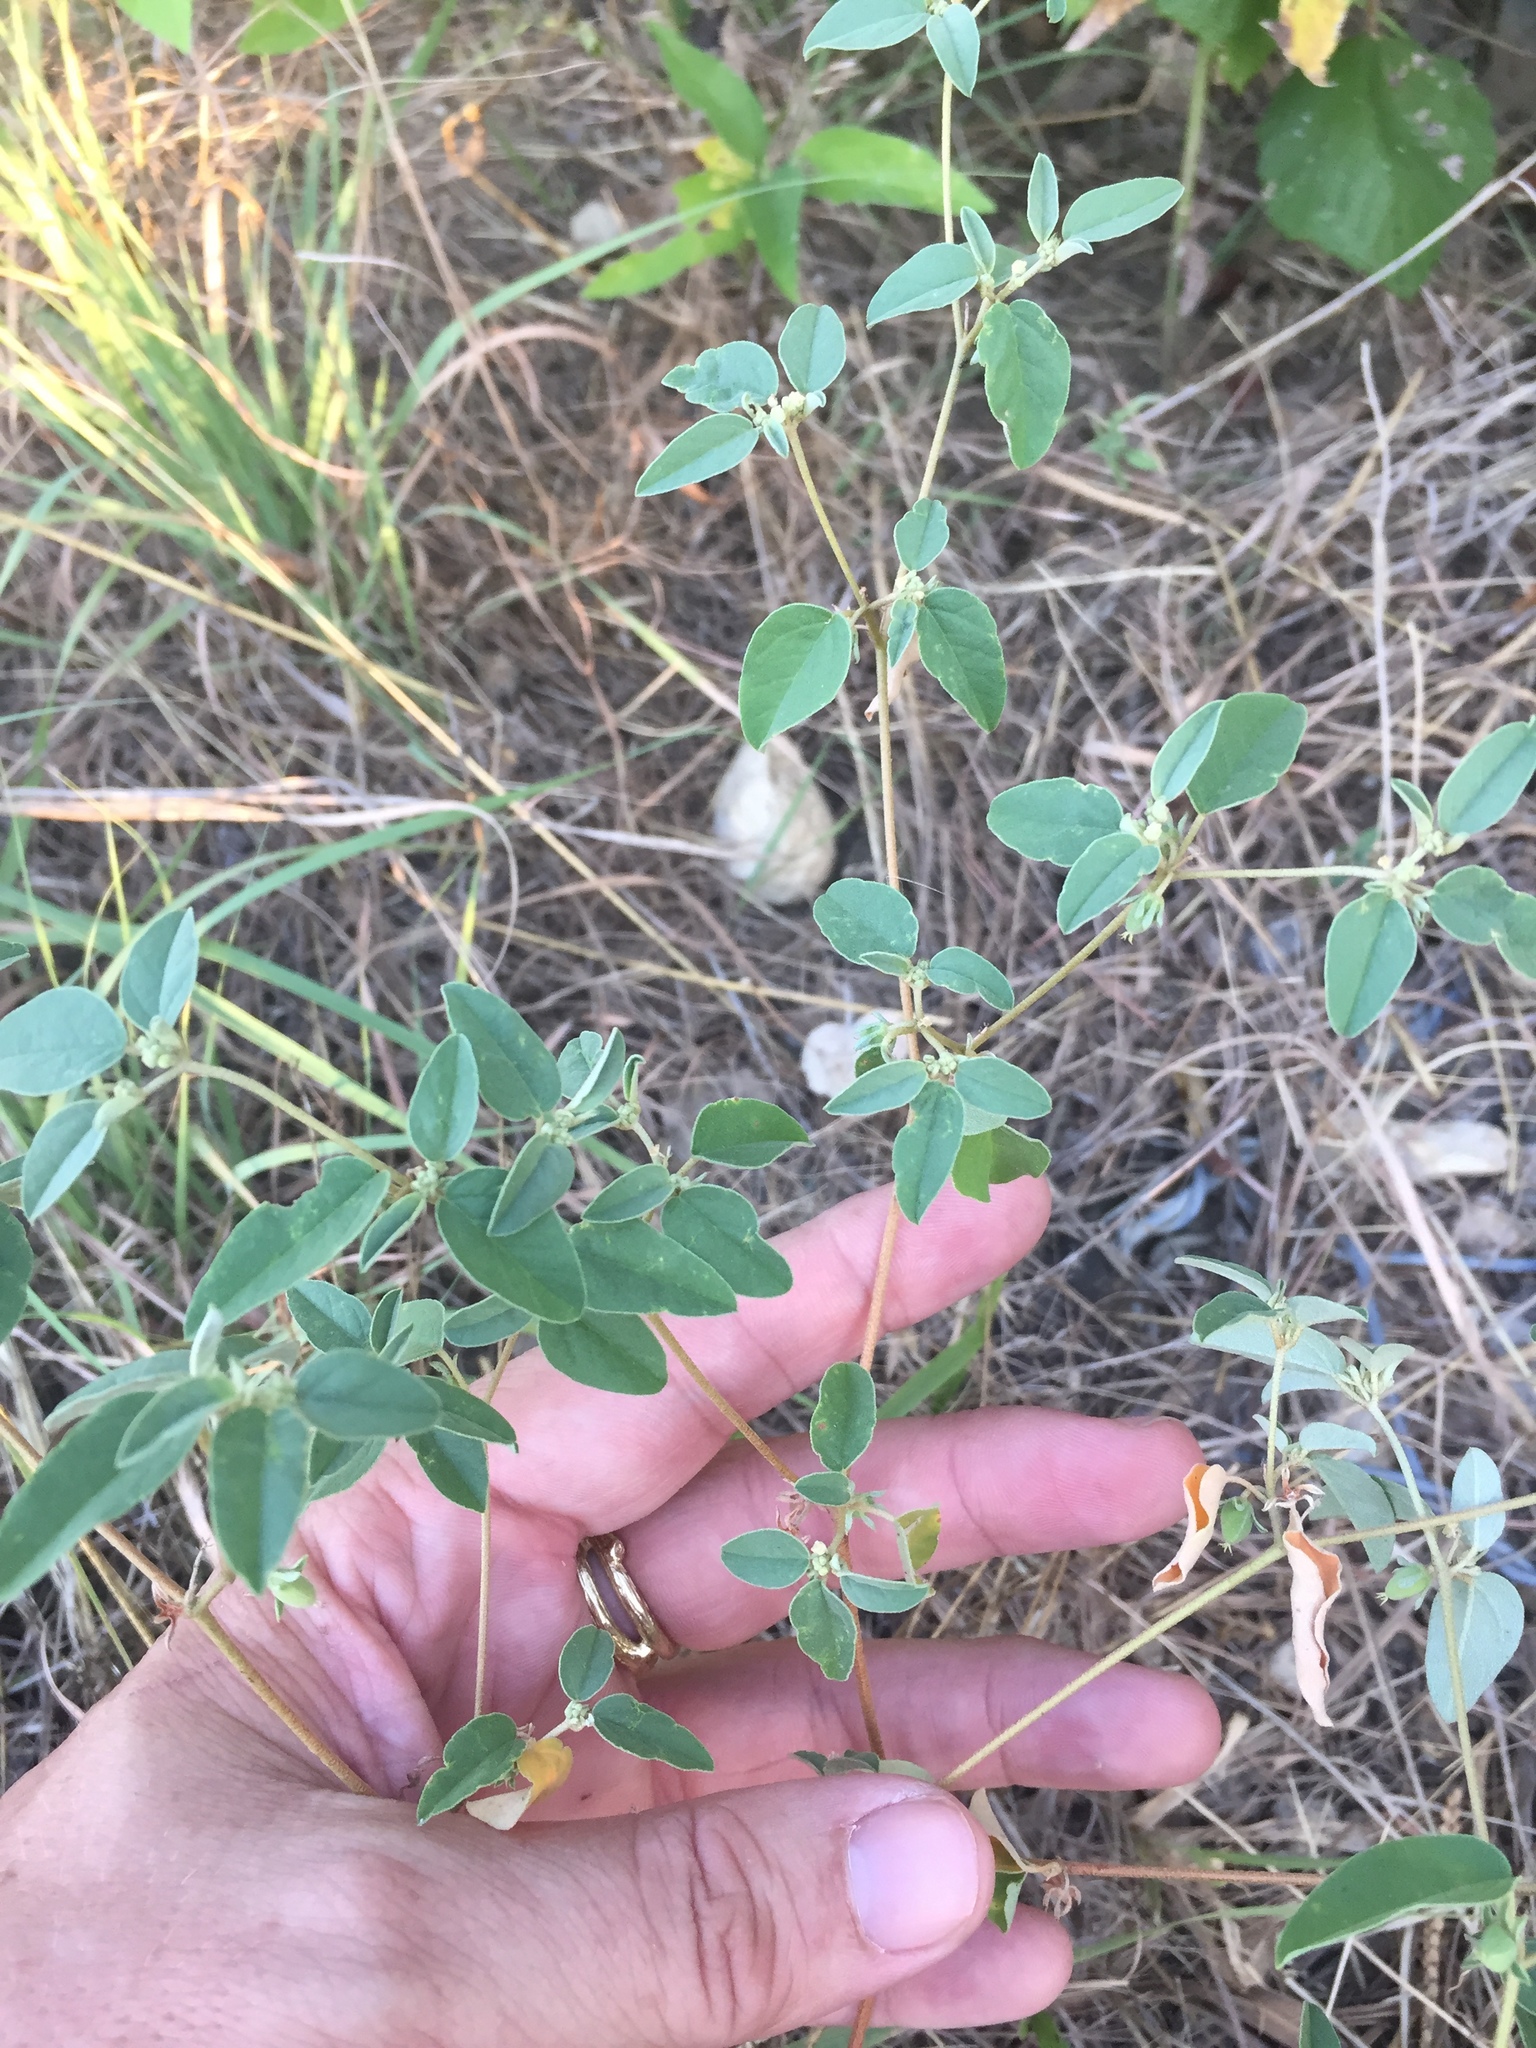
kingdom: Plantae
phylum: Tracheophyta
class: Magnoliopsida
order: Malpighiales
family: Euphorbiaceae
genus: Croton
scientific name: Croton monanthogynus
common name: One-seed croton
